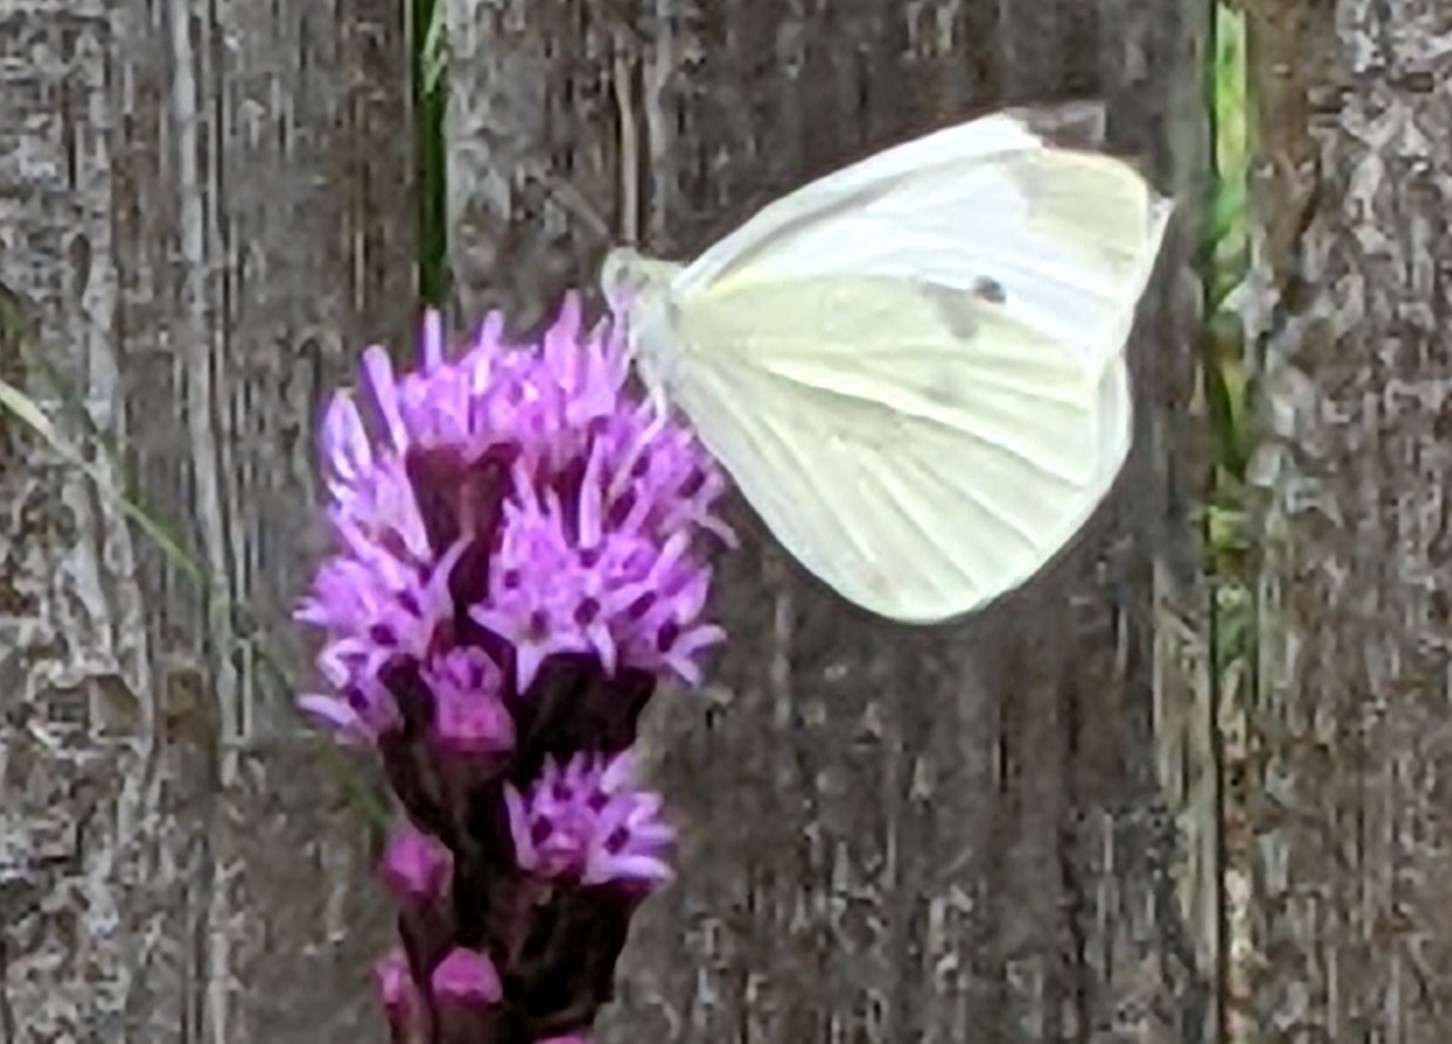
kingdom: Animalia
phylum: Arthropoda
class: Insecta
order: Lepidoptera
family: Pieridae
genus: Pieris
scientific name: Pieris rapae
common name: Small white
